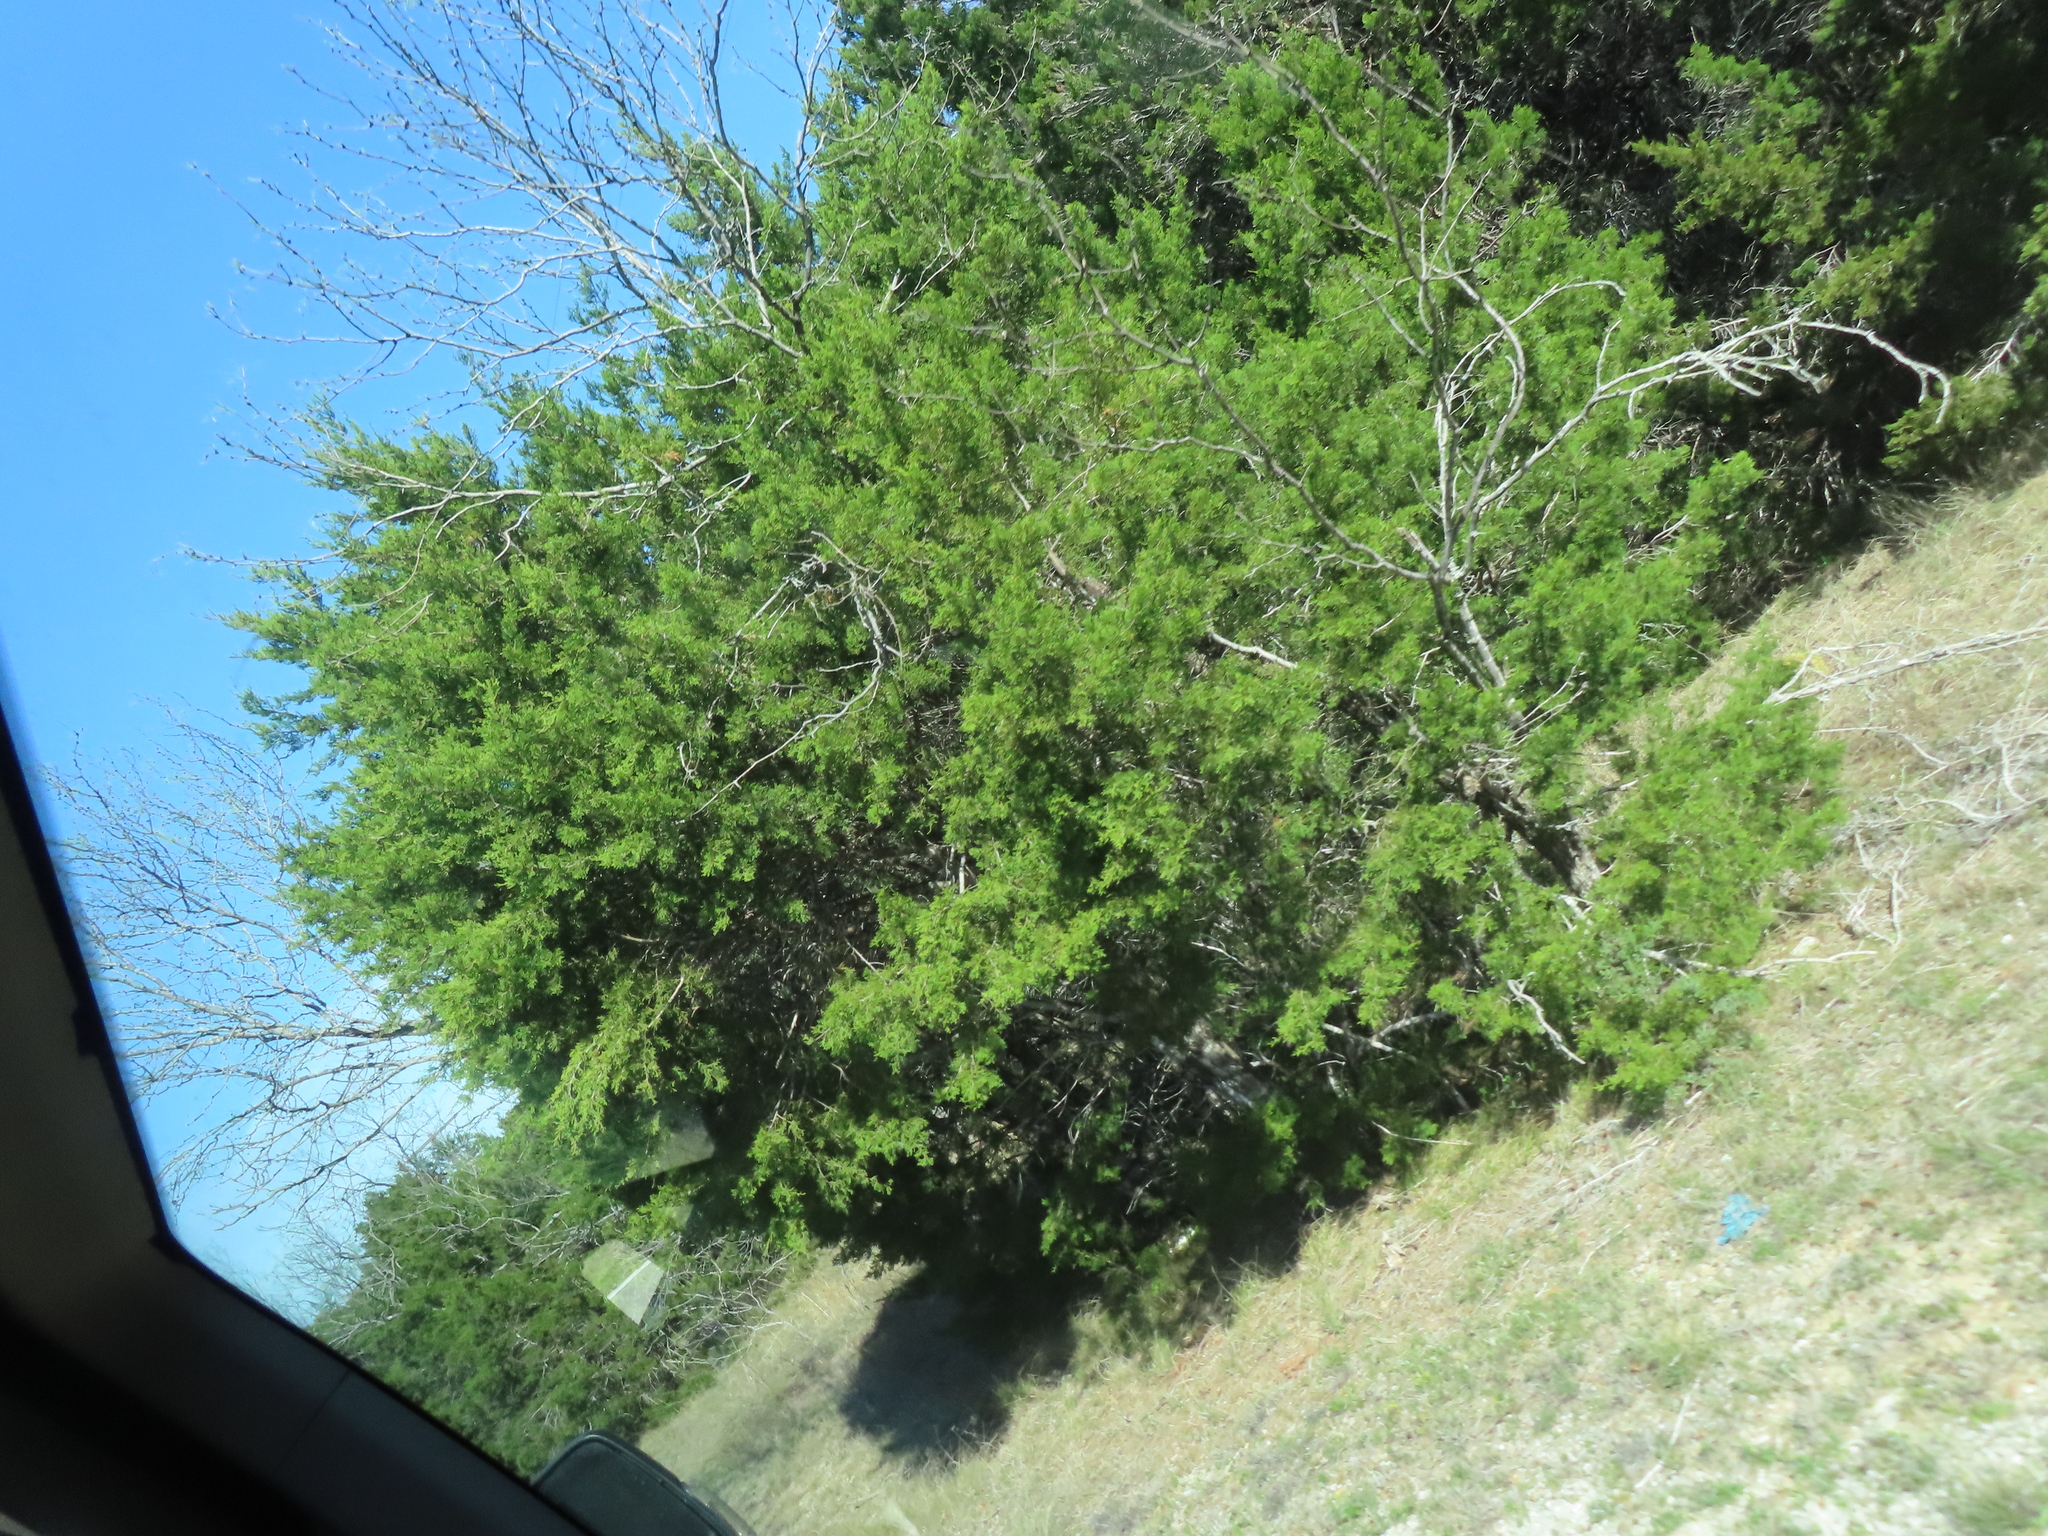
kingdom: Plantae
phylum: Tracheophyta
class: Pinopsida
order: Pinales
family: Cupressaceae
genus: Juniperus
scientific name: Juniperus ashei
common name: Mexican juniper
